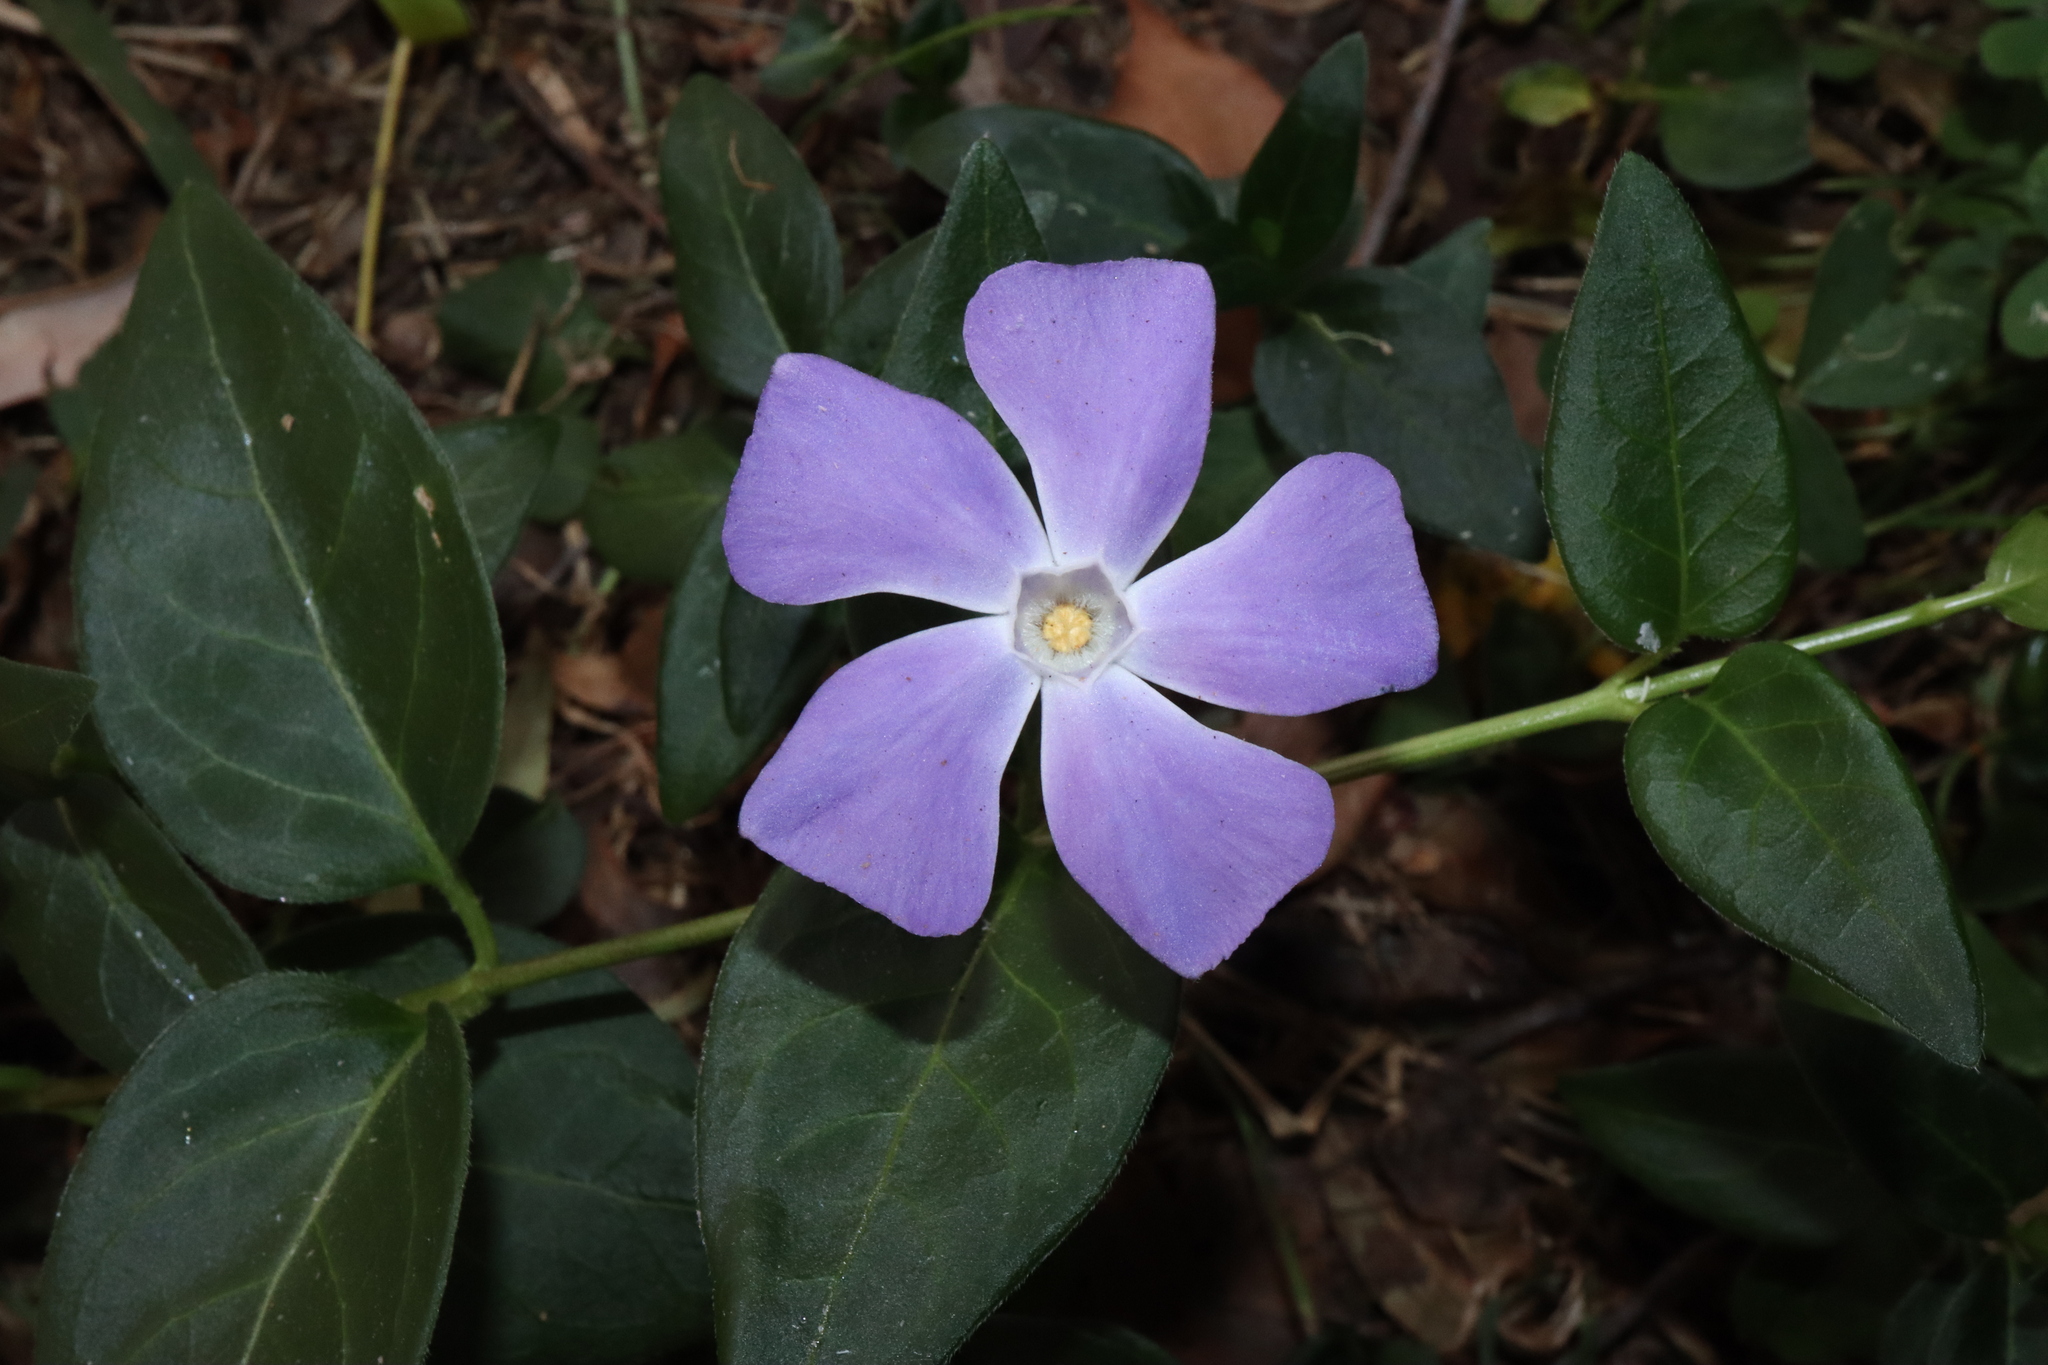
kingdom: Plantae
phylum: Tracheophyta
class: Magnoliopsida
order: Gentianales
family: Apocynaceae
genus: Vinca
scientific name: Vinca major
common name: Greater periwinkle
